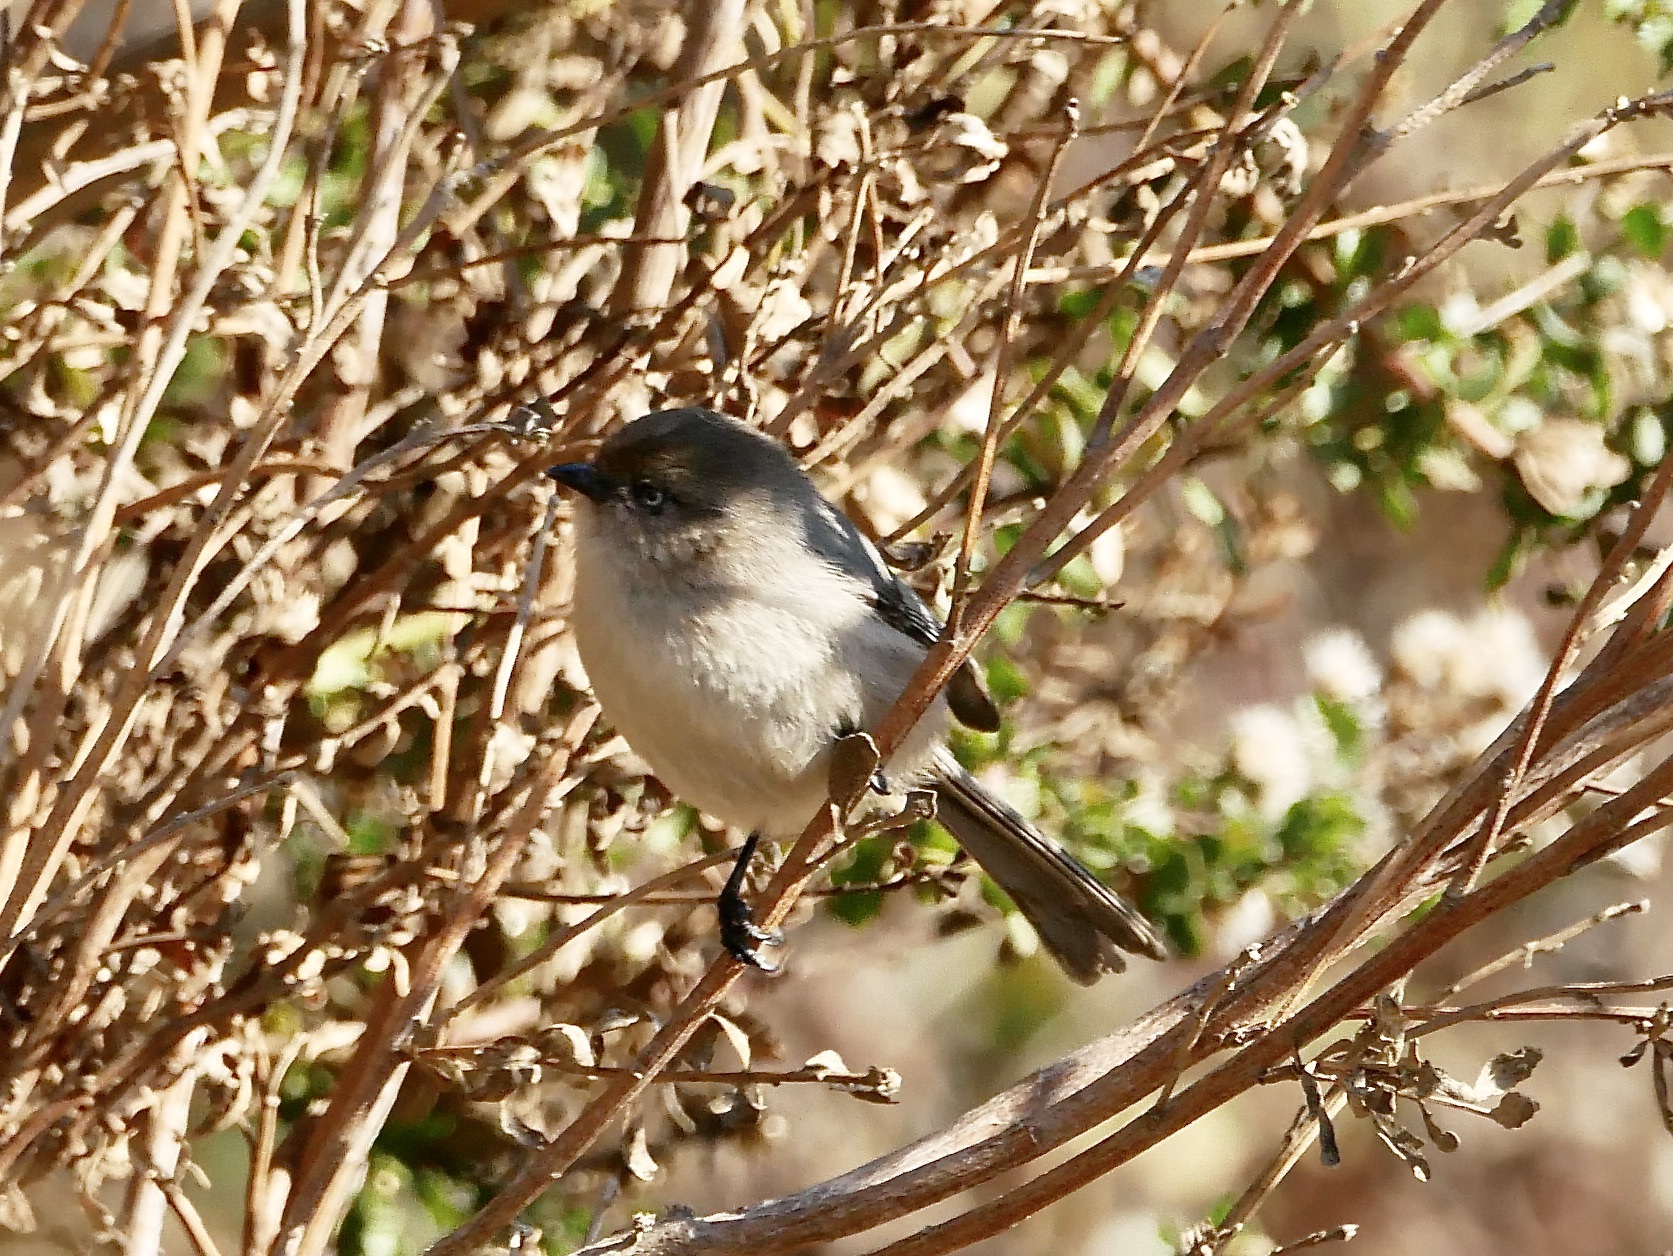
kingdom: Animalia
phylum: Chordata
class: Aves
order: Passeriformes
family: Aegithalidae
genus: Psaltriparus
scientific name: Psaltriparus minimus
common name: American bushtit
